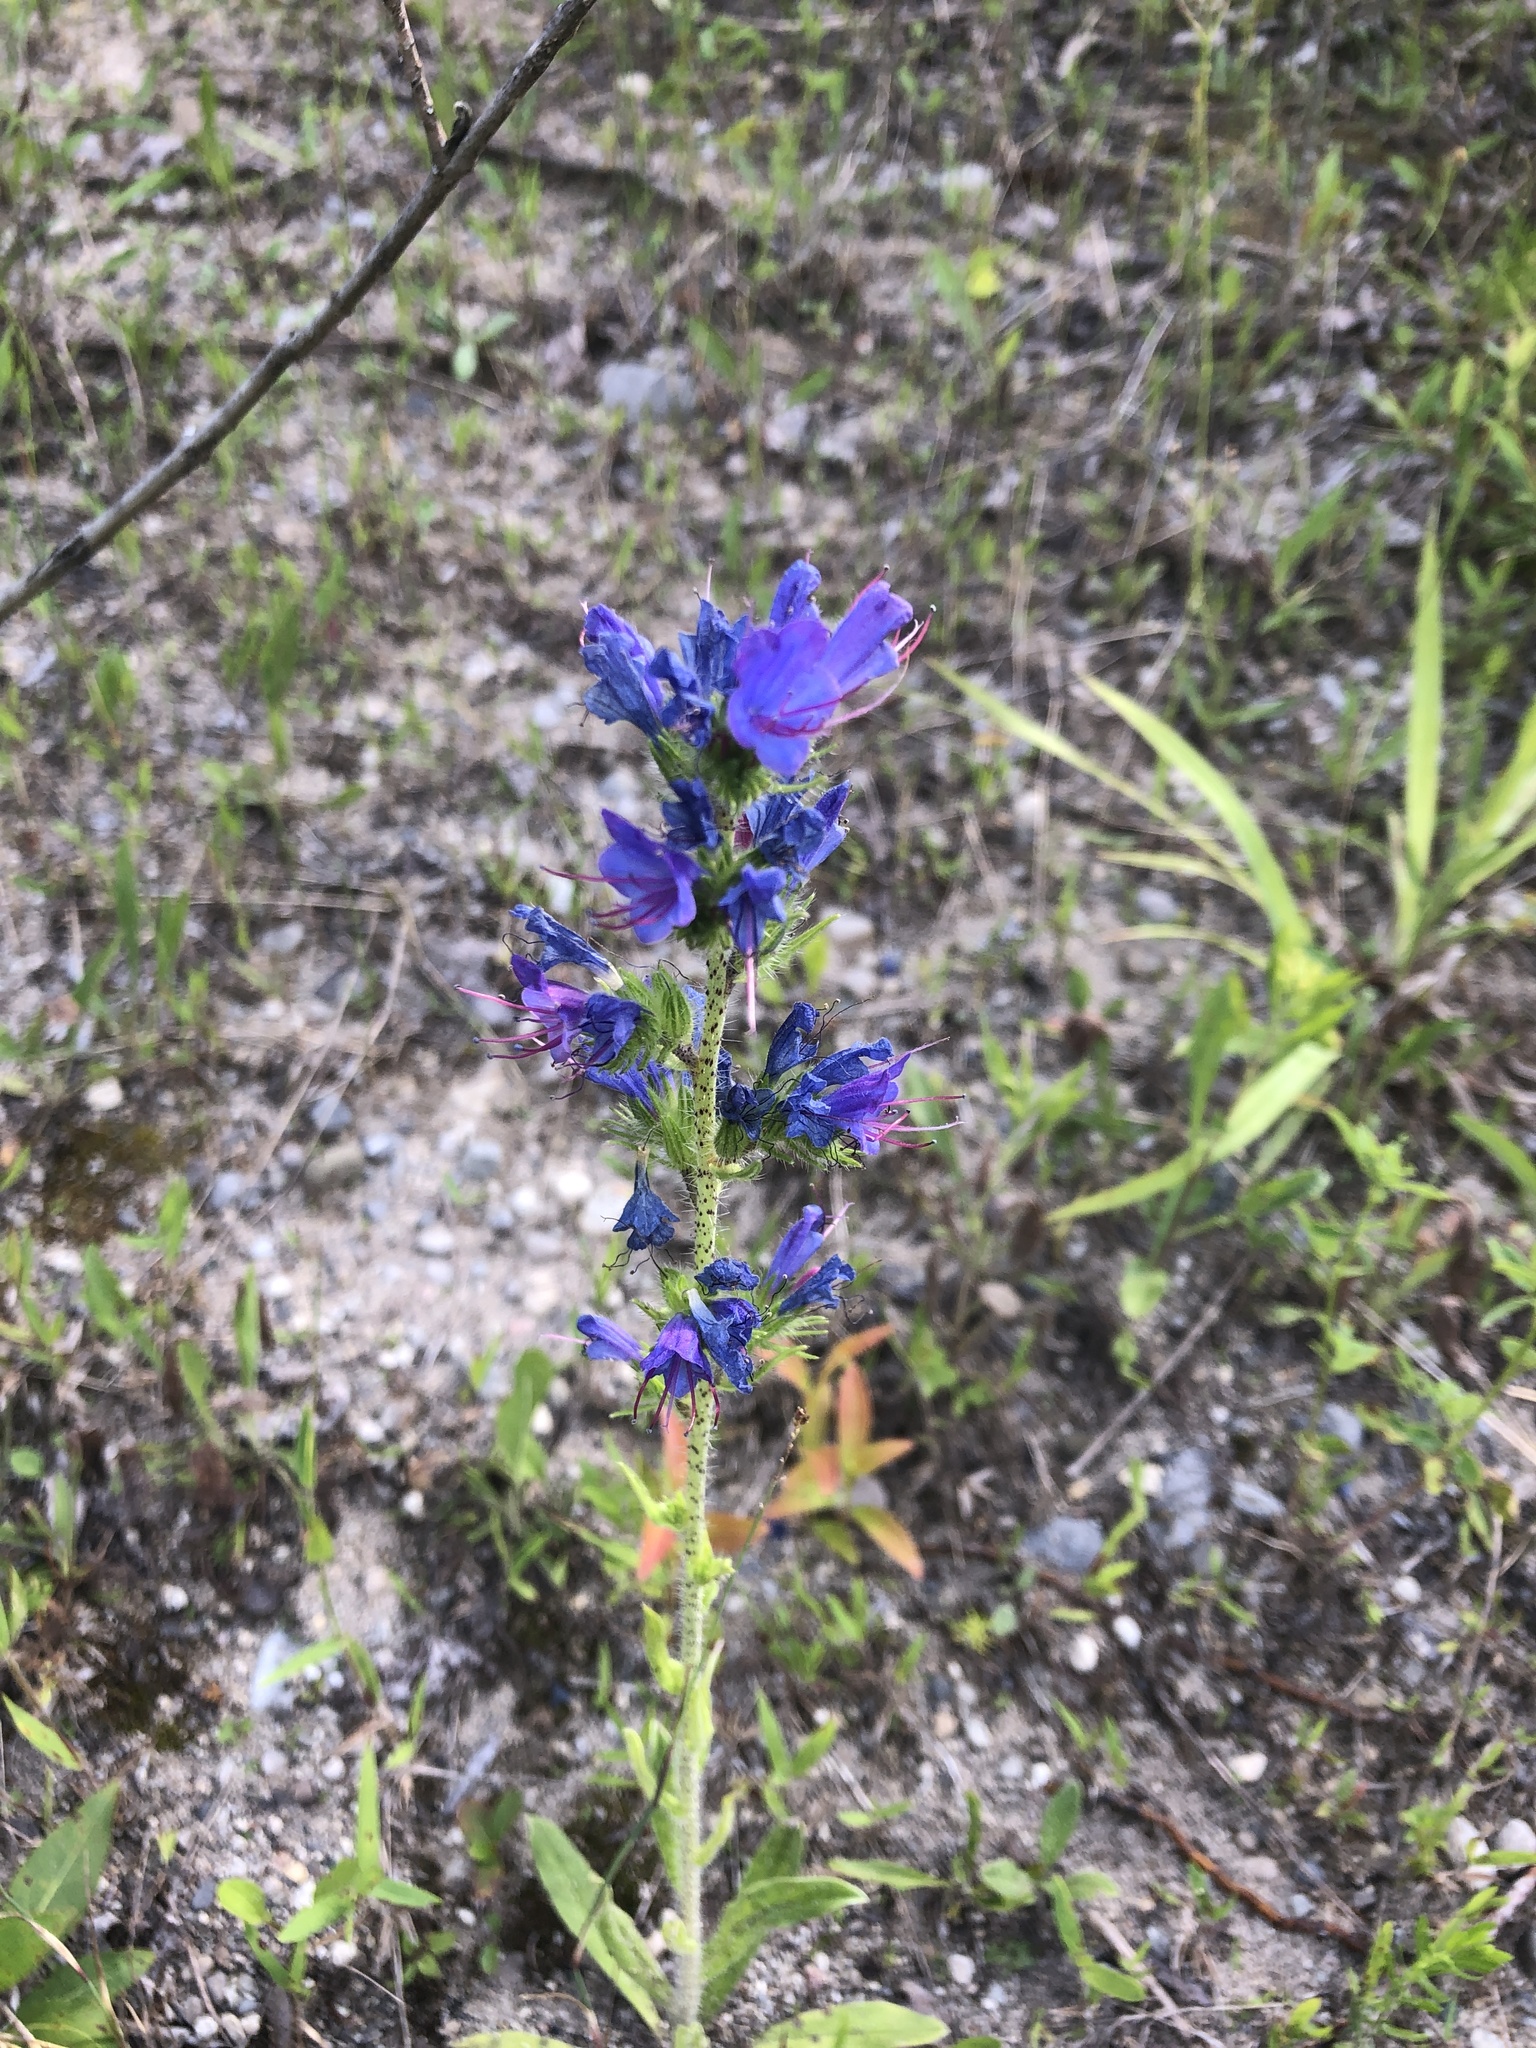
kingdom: Plantae
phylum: Tracheophyta
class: Magnoliopsida
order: Boraginales
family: Boraginaceae
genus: Echium
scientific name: Echium vulgare
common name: Common viper's bugloss
